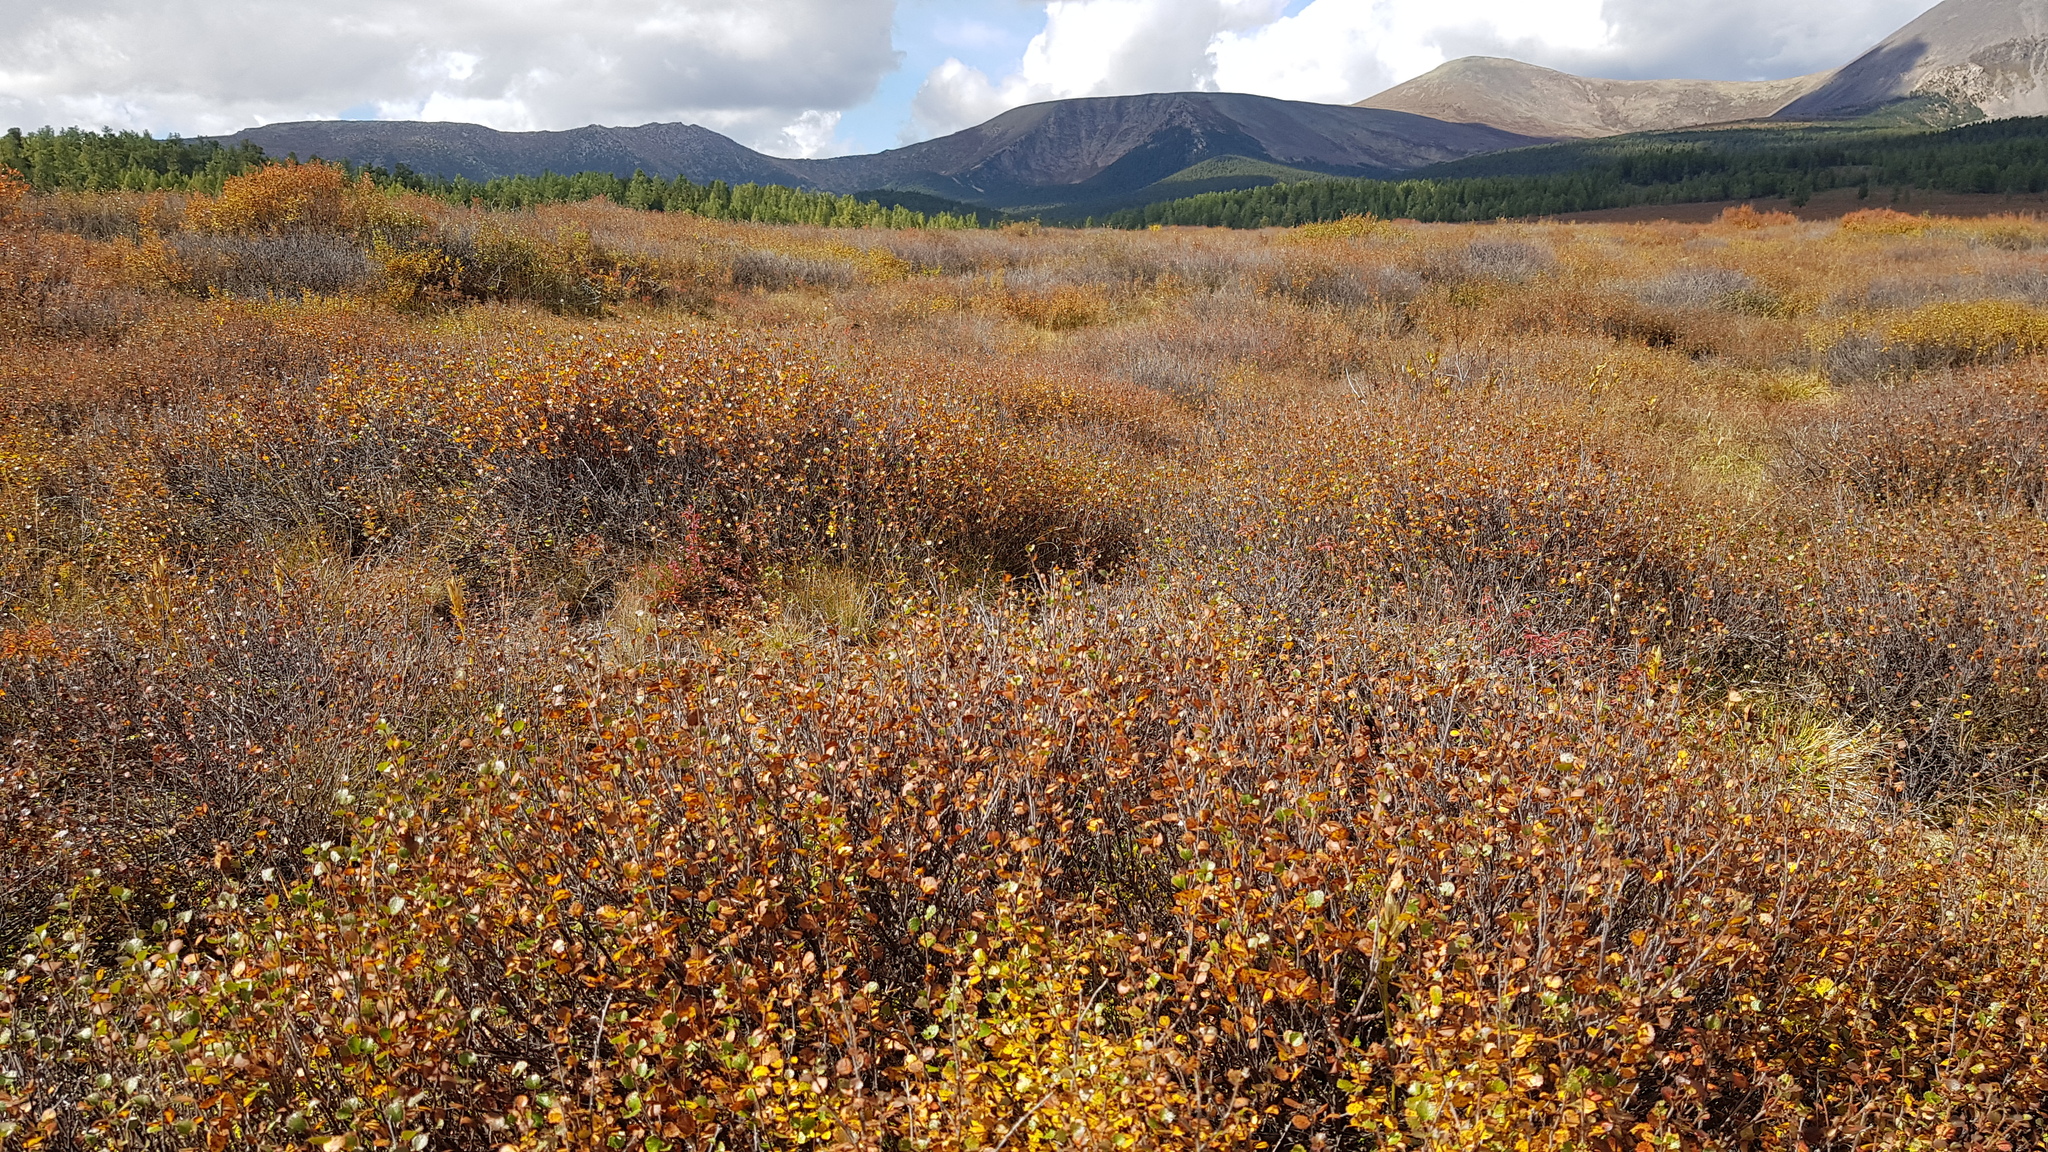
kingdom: Plantae
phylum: Tracheophyta
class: Magnoliopsida
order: Fagales
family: Betulaceae
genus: Betula
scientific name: Betula glandulosa
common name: Dwarf birch
